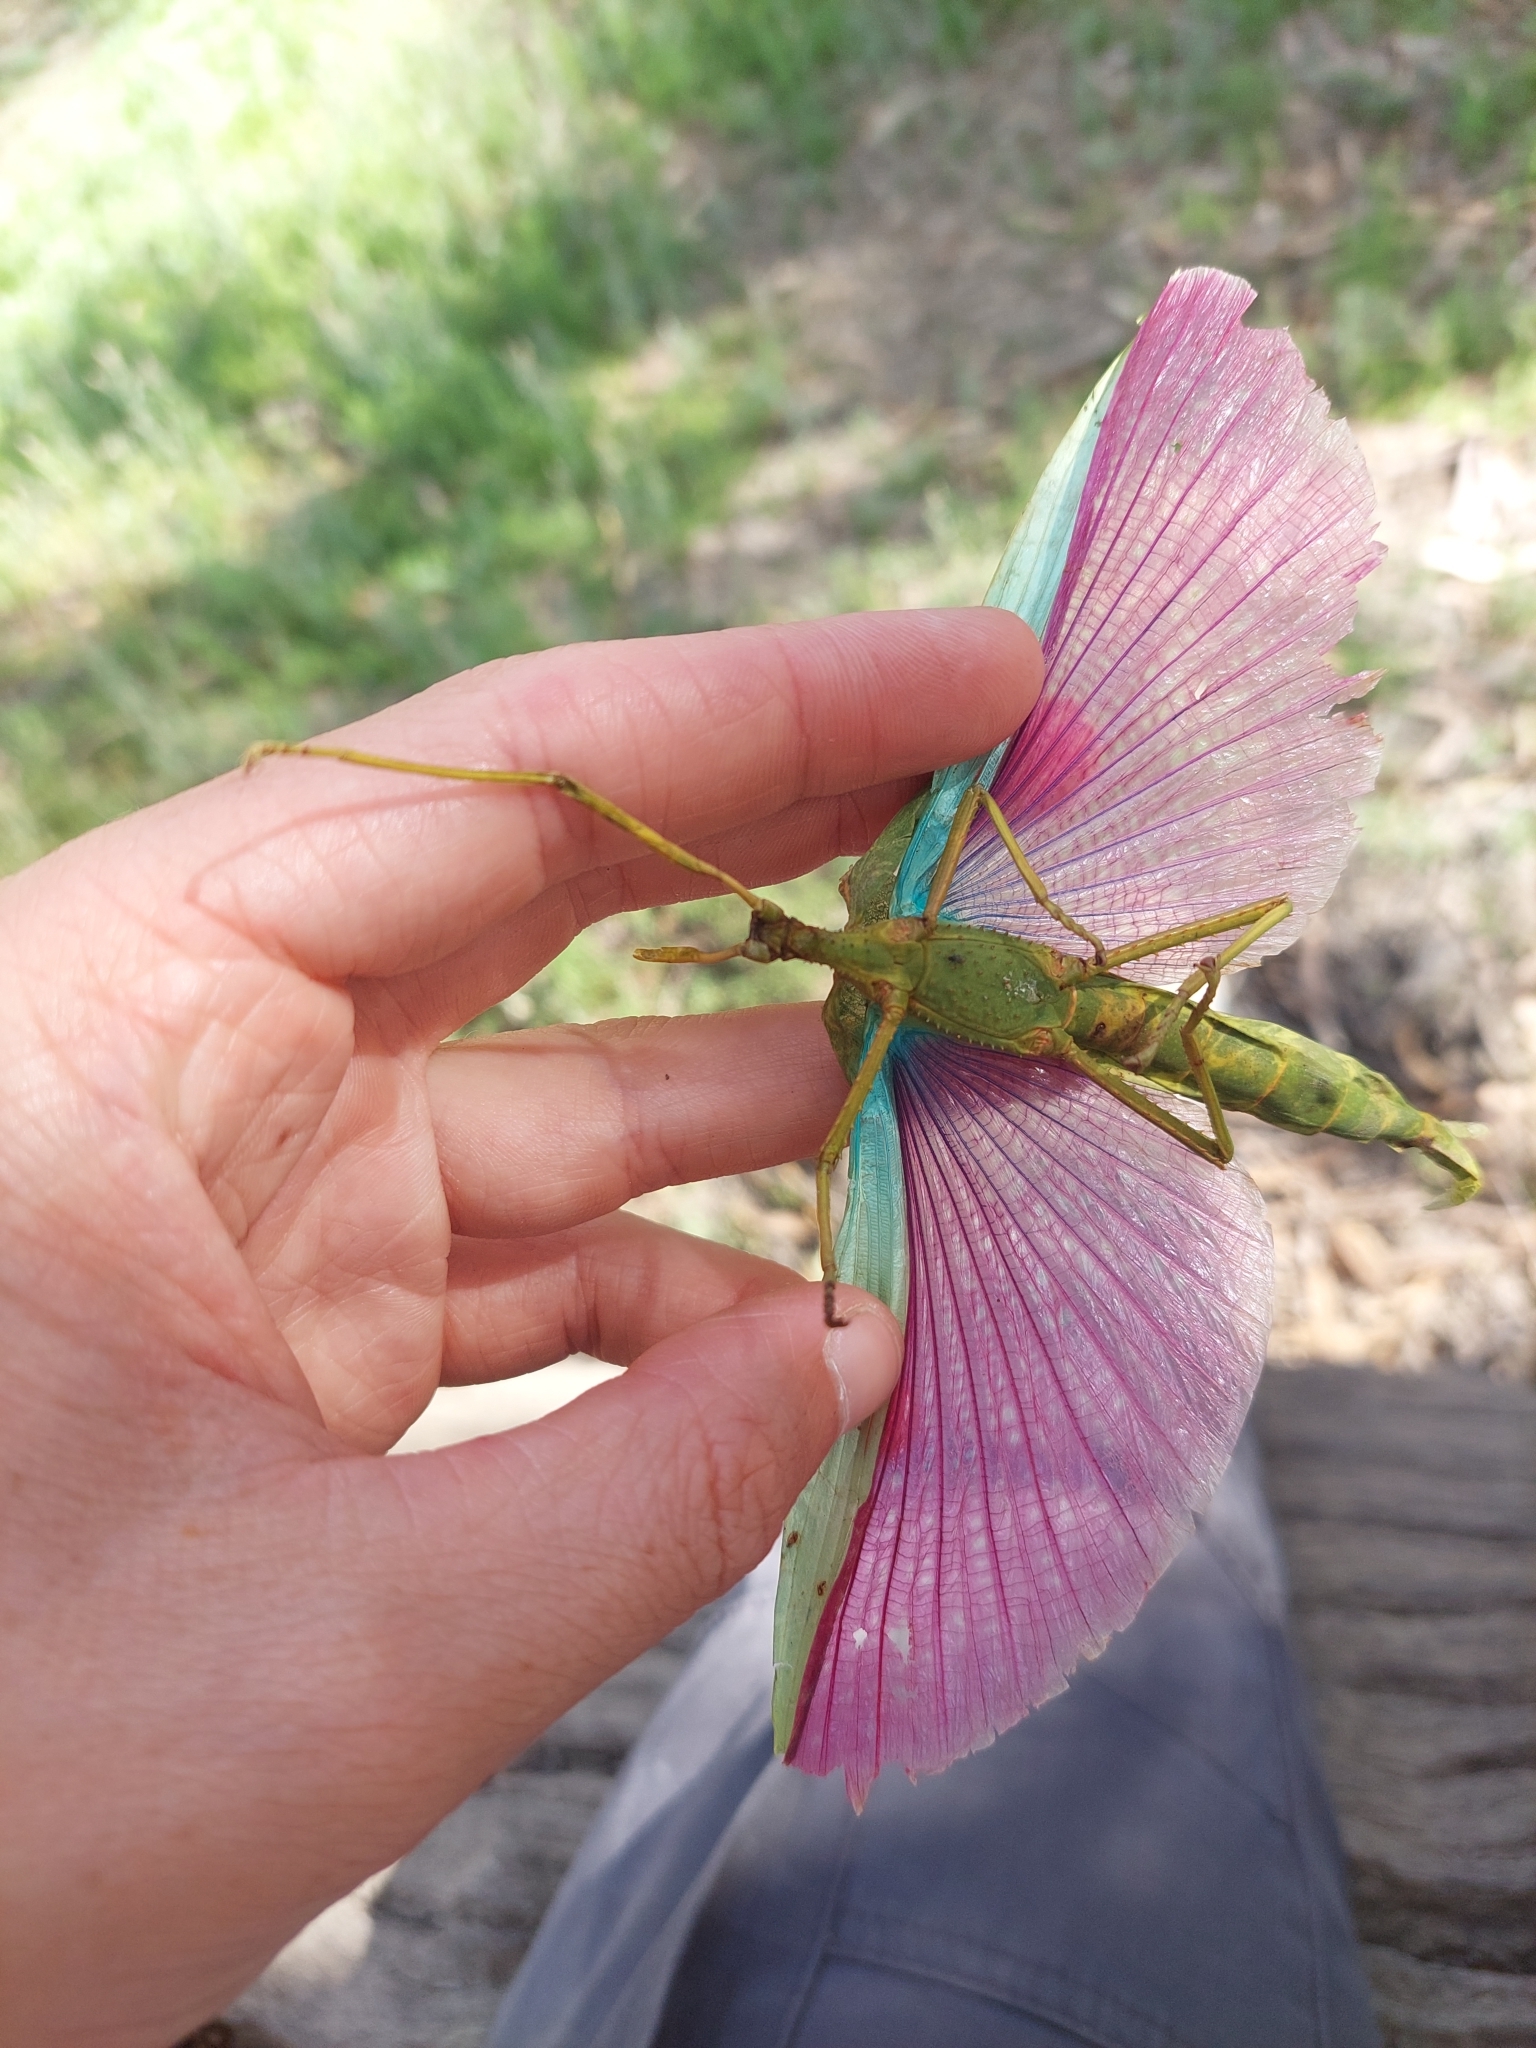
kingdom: Animalia
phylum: Arthropoda
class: Insecta
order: Phasmida
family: Phasmatidae
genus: Podacanthus
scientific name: Podacanthus viridiroseus
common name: Red-winged stick-insect
